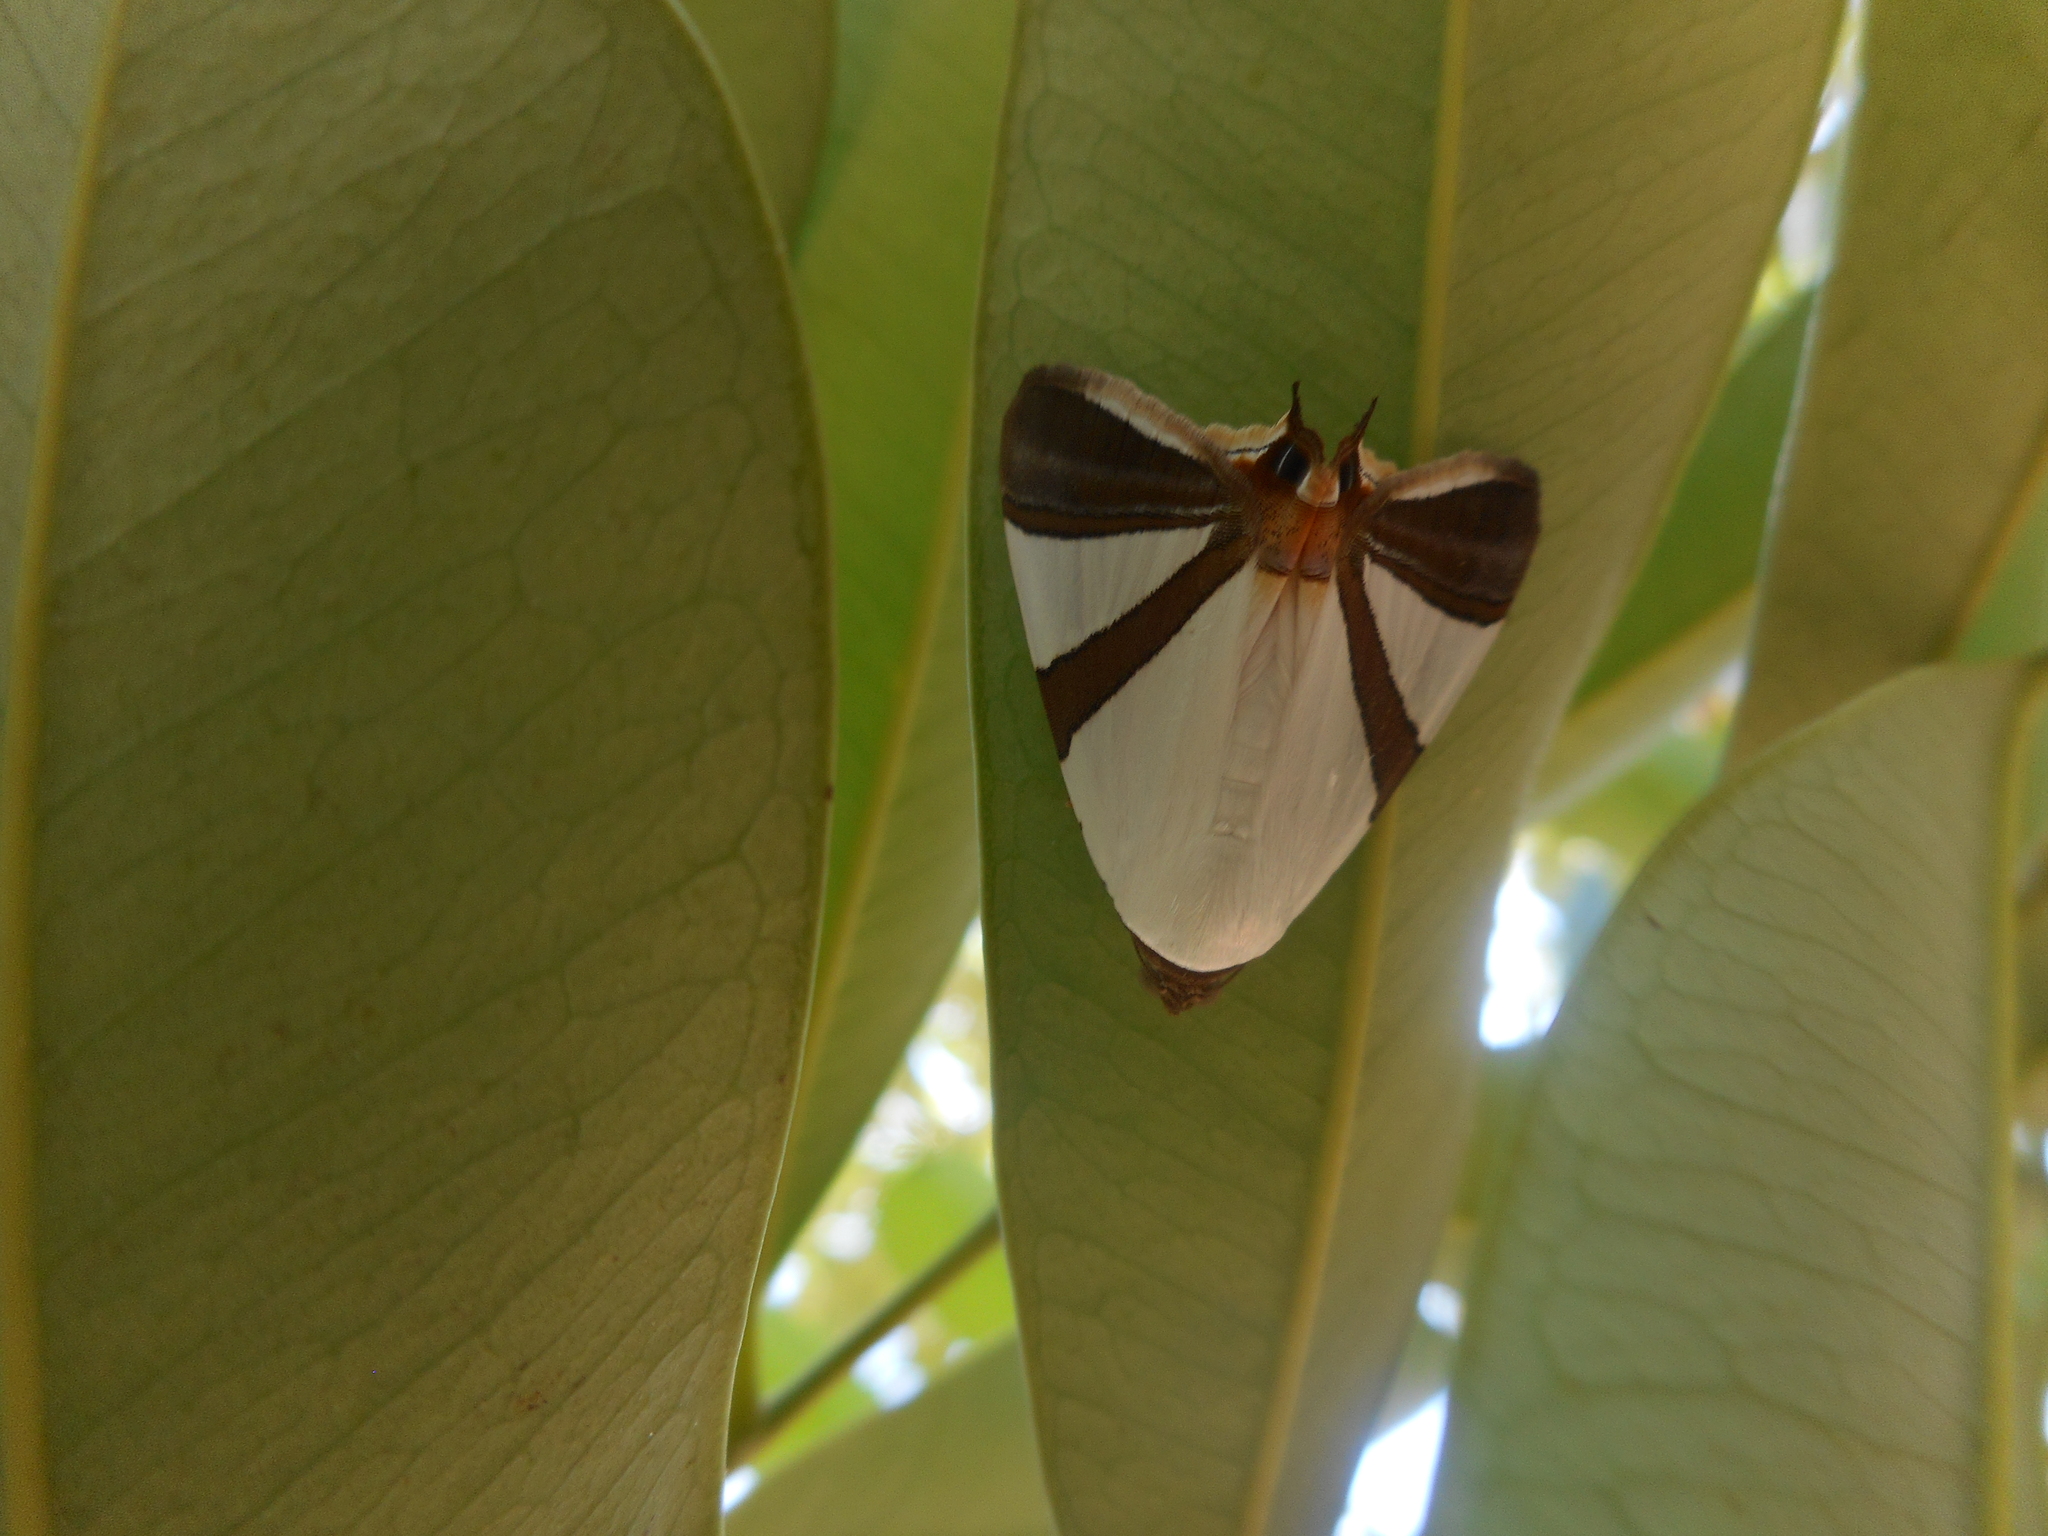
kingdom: Animalia
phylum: Arthropoda
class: Insecta
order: Lepidoptera
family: Erebidae
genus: Eulepidotis
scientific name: Eulepidotis rectimargo
